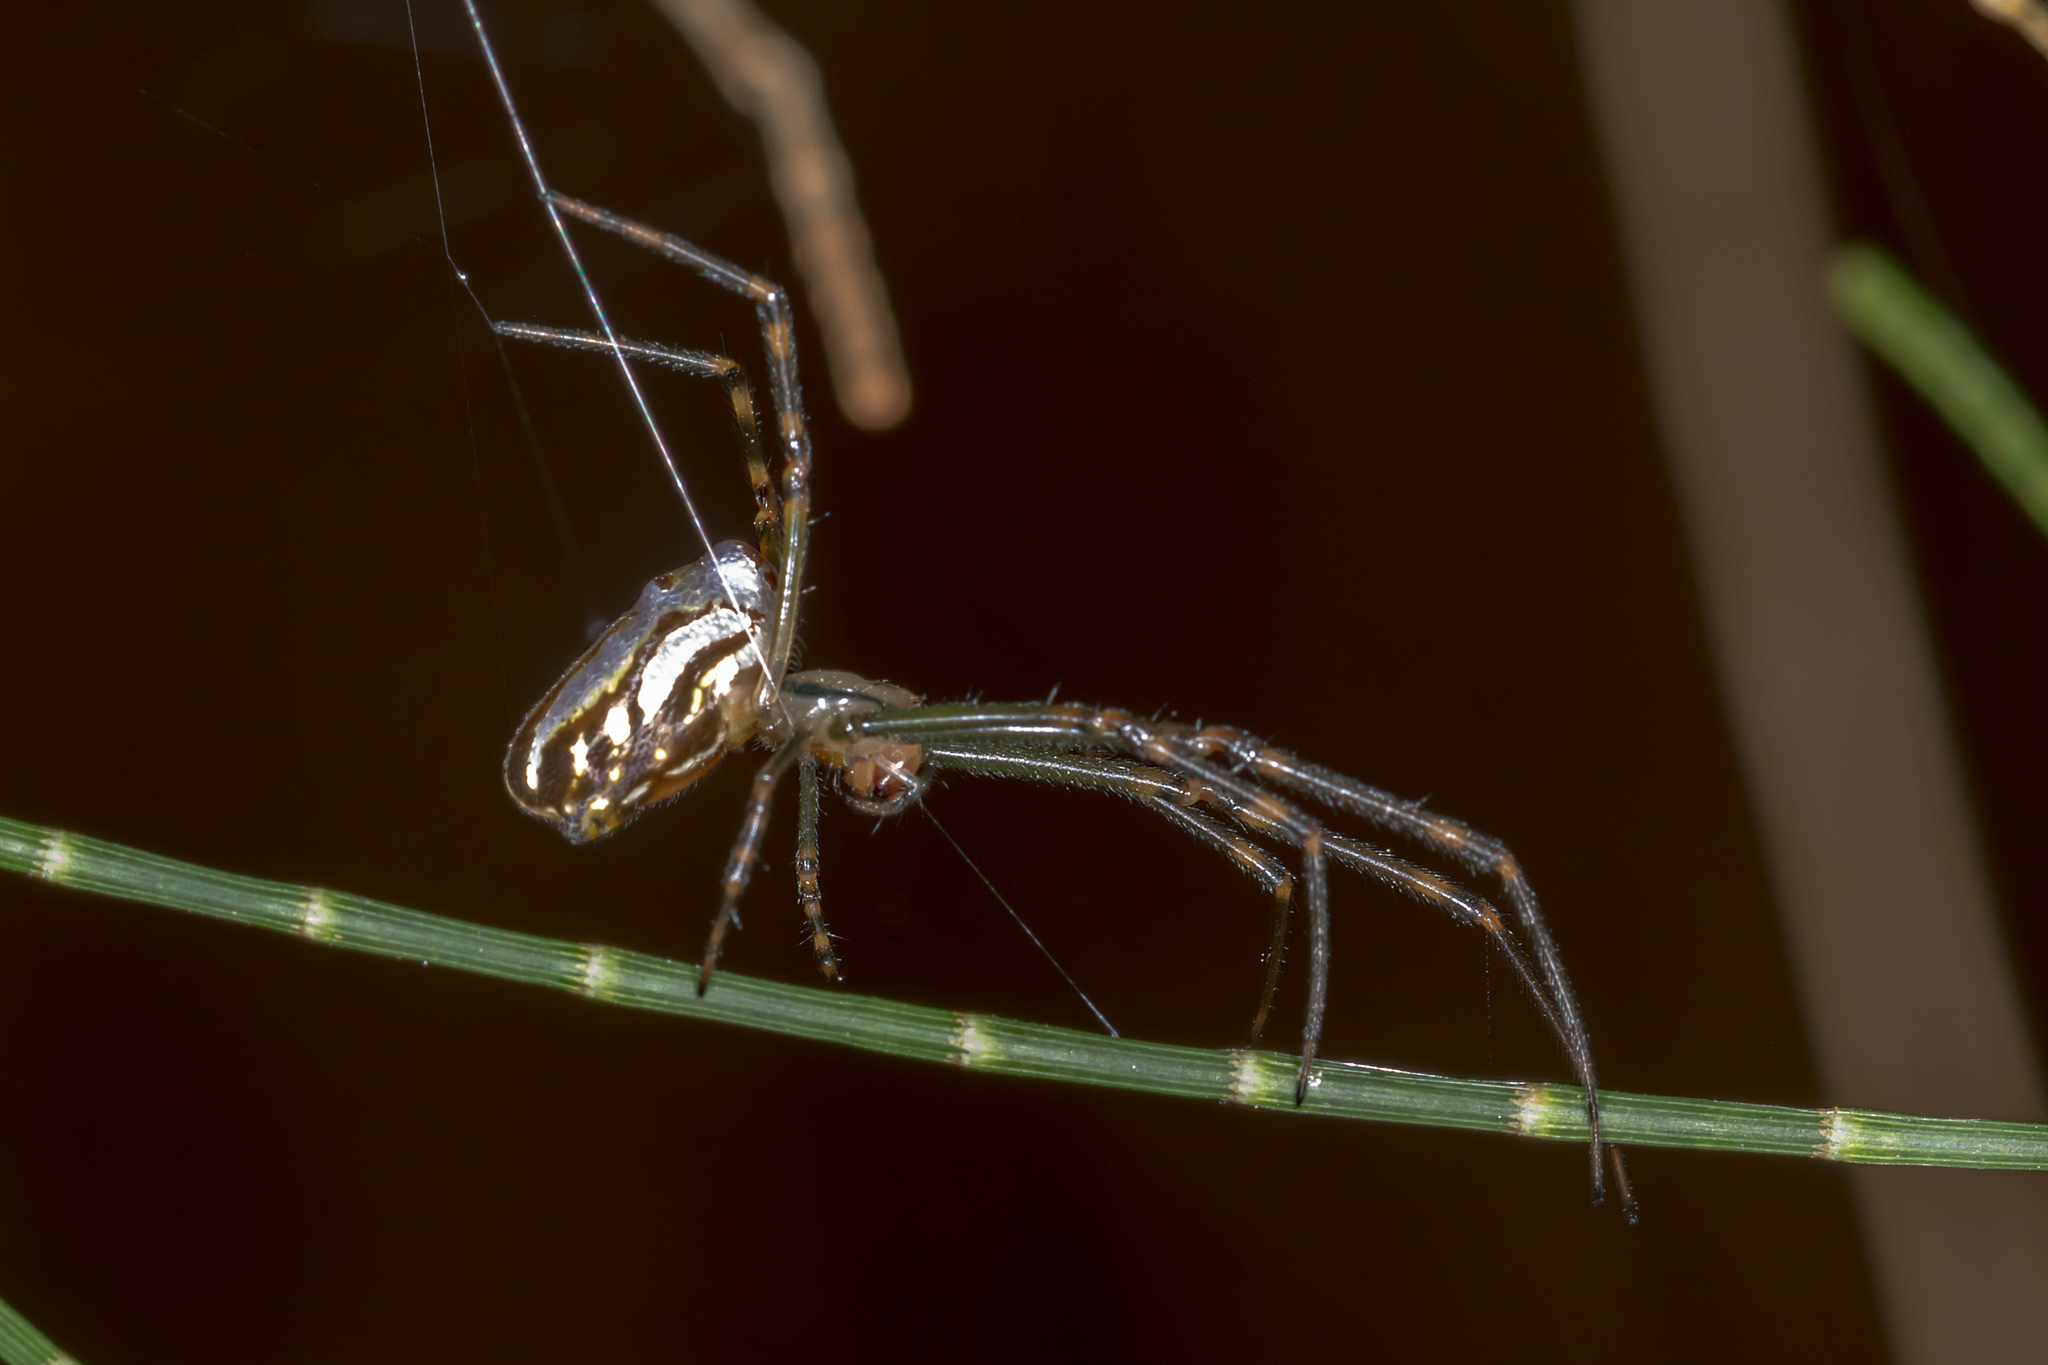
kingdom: Animalia
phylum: Arthropoda
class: Arachnida
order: Araneae
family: Tetragnathidae
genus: Leucauge
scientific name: Leucauge dromedaria
